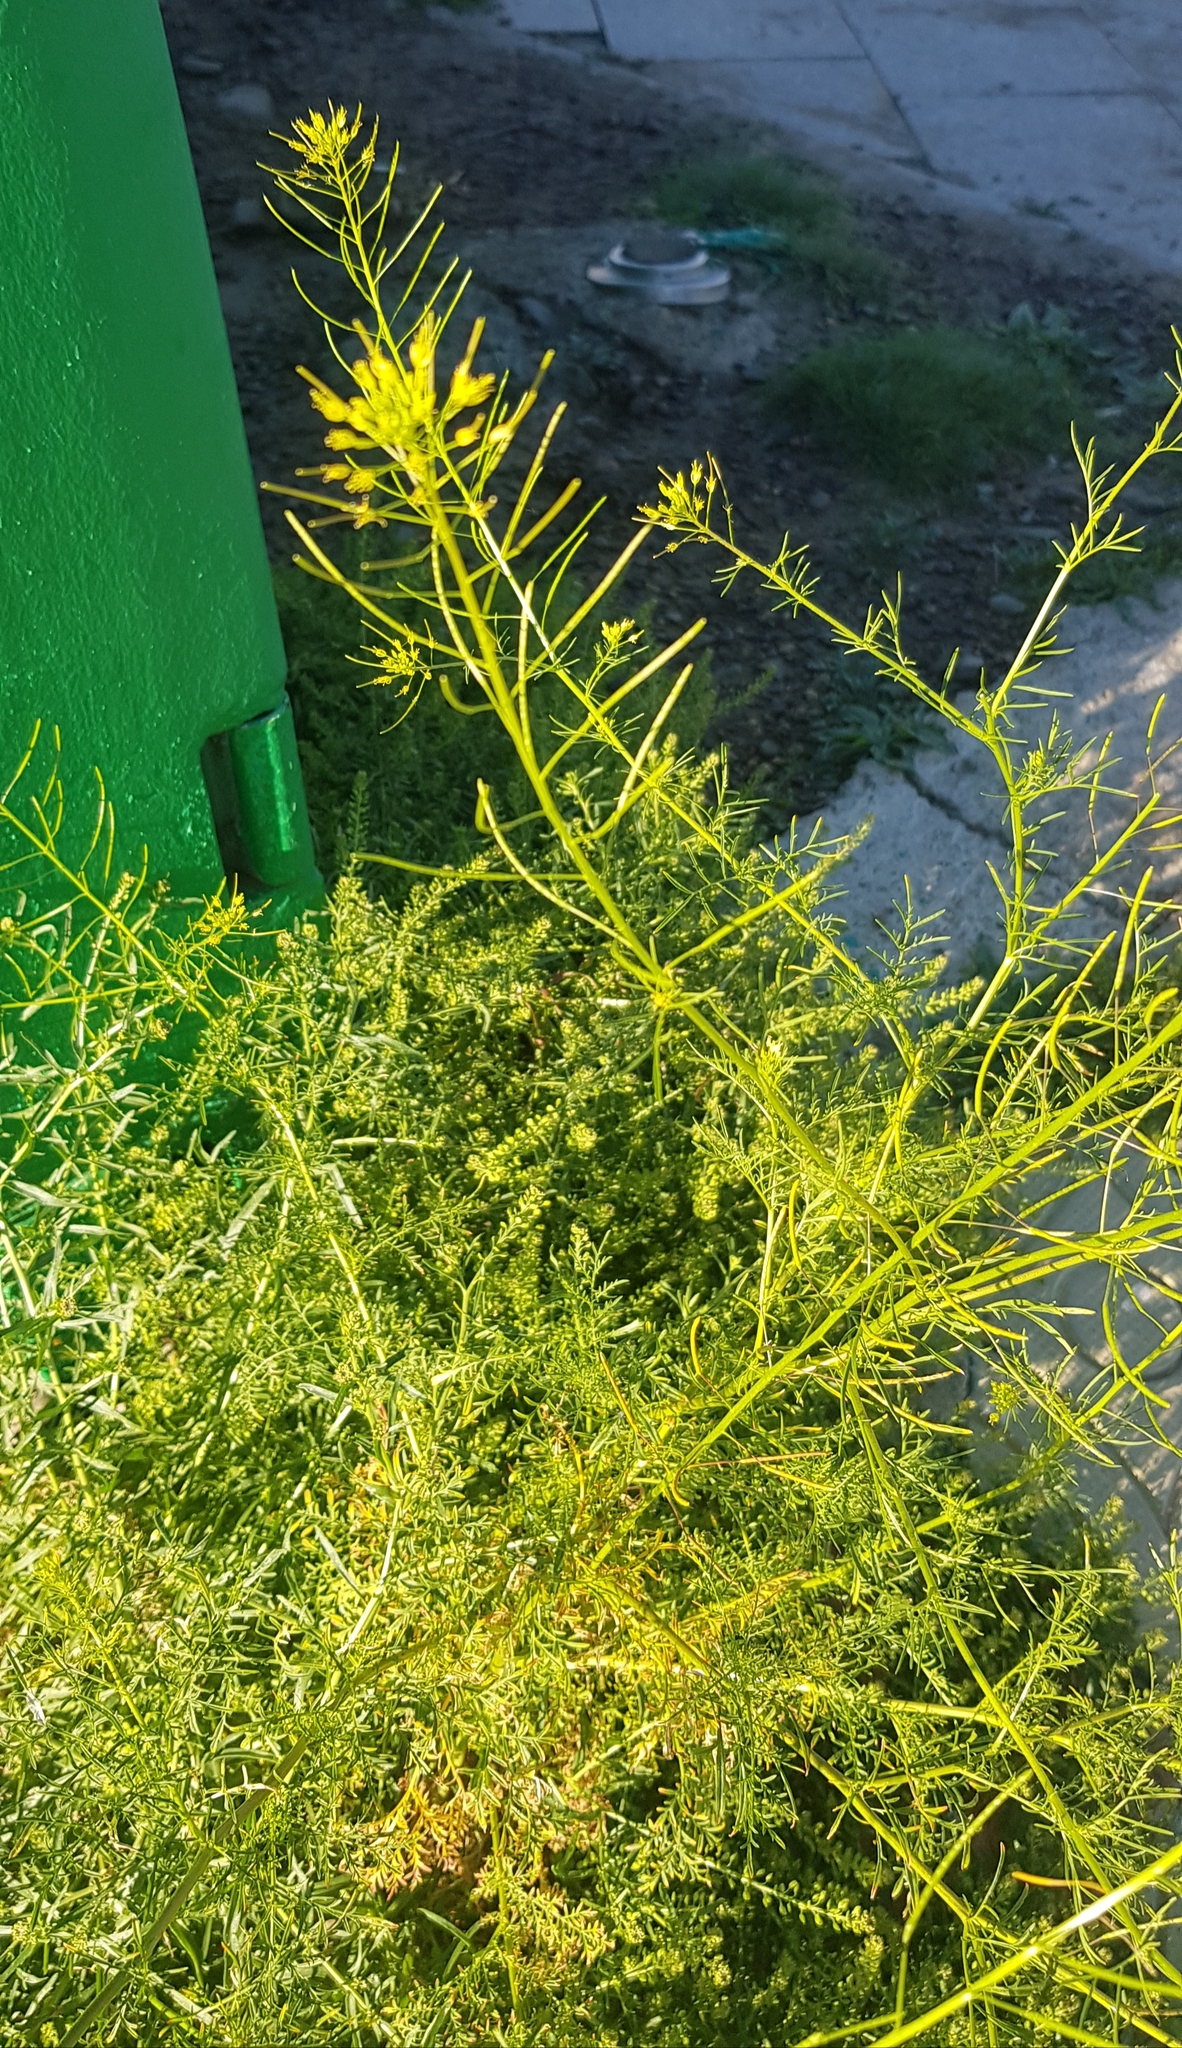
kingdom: Plantae
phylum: Tracheophyta
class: Magnoliopsida
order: Brassicales
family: Brassicaceae
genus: Descurainia
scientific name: Descurainia sophia
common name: Flixweed
